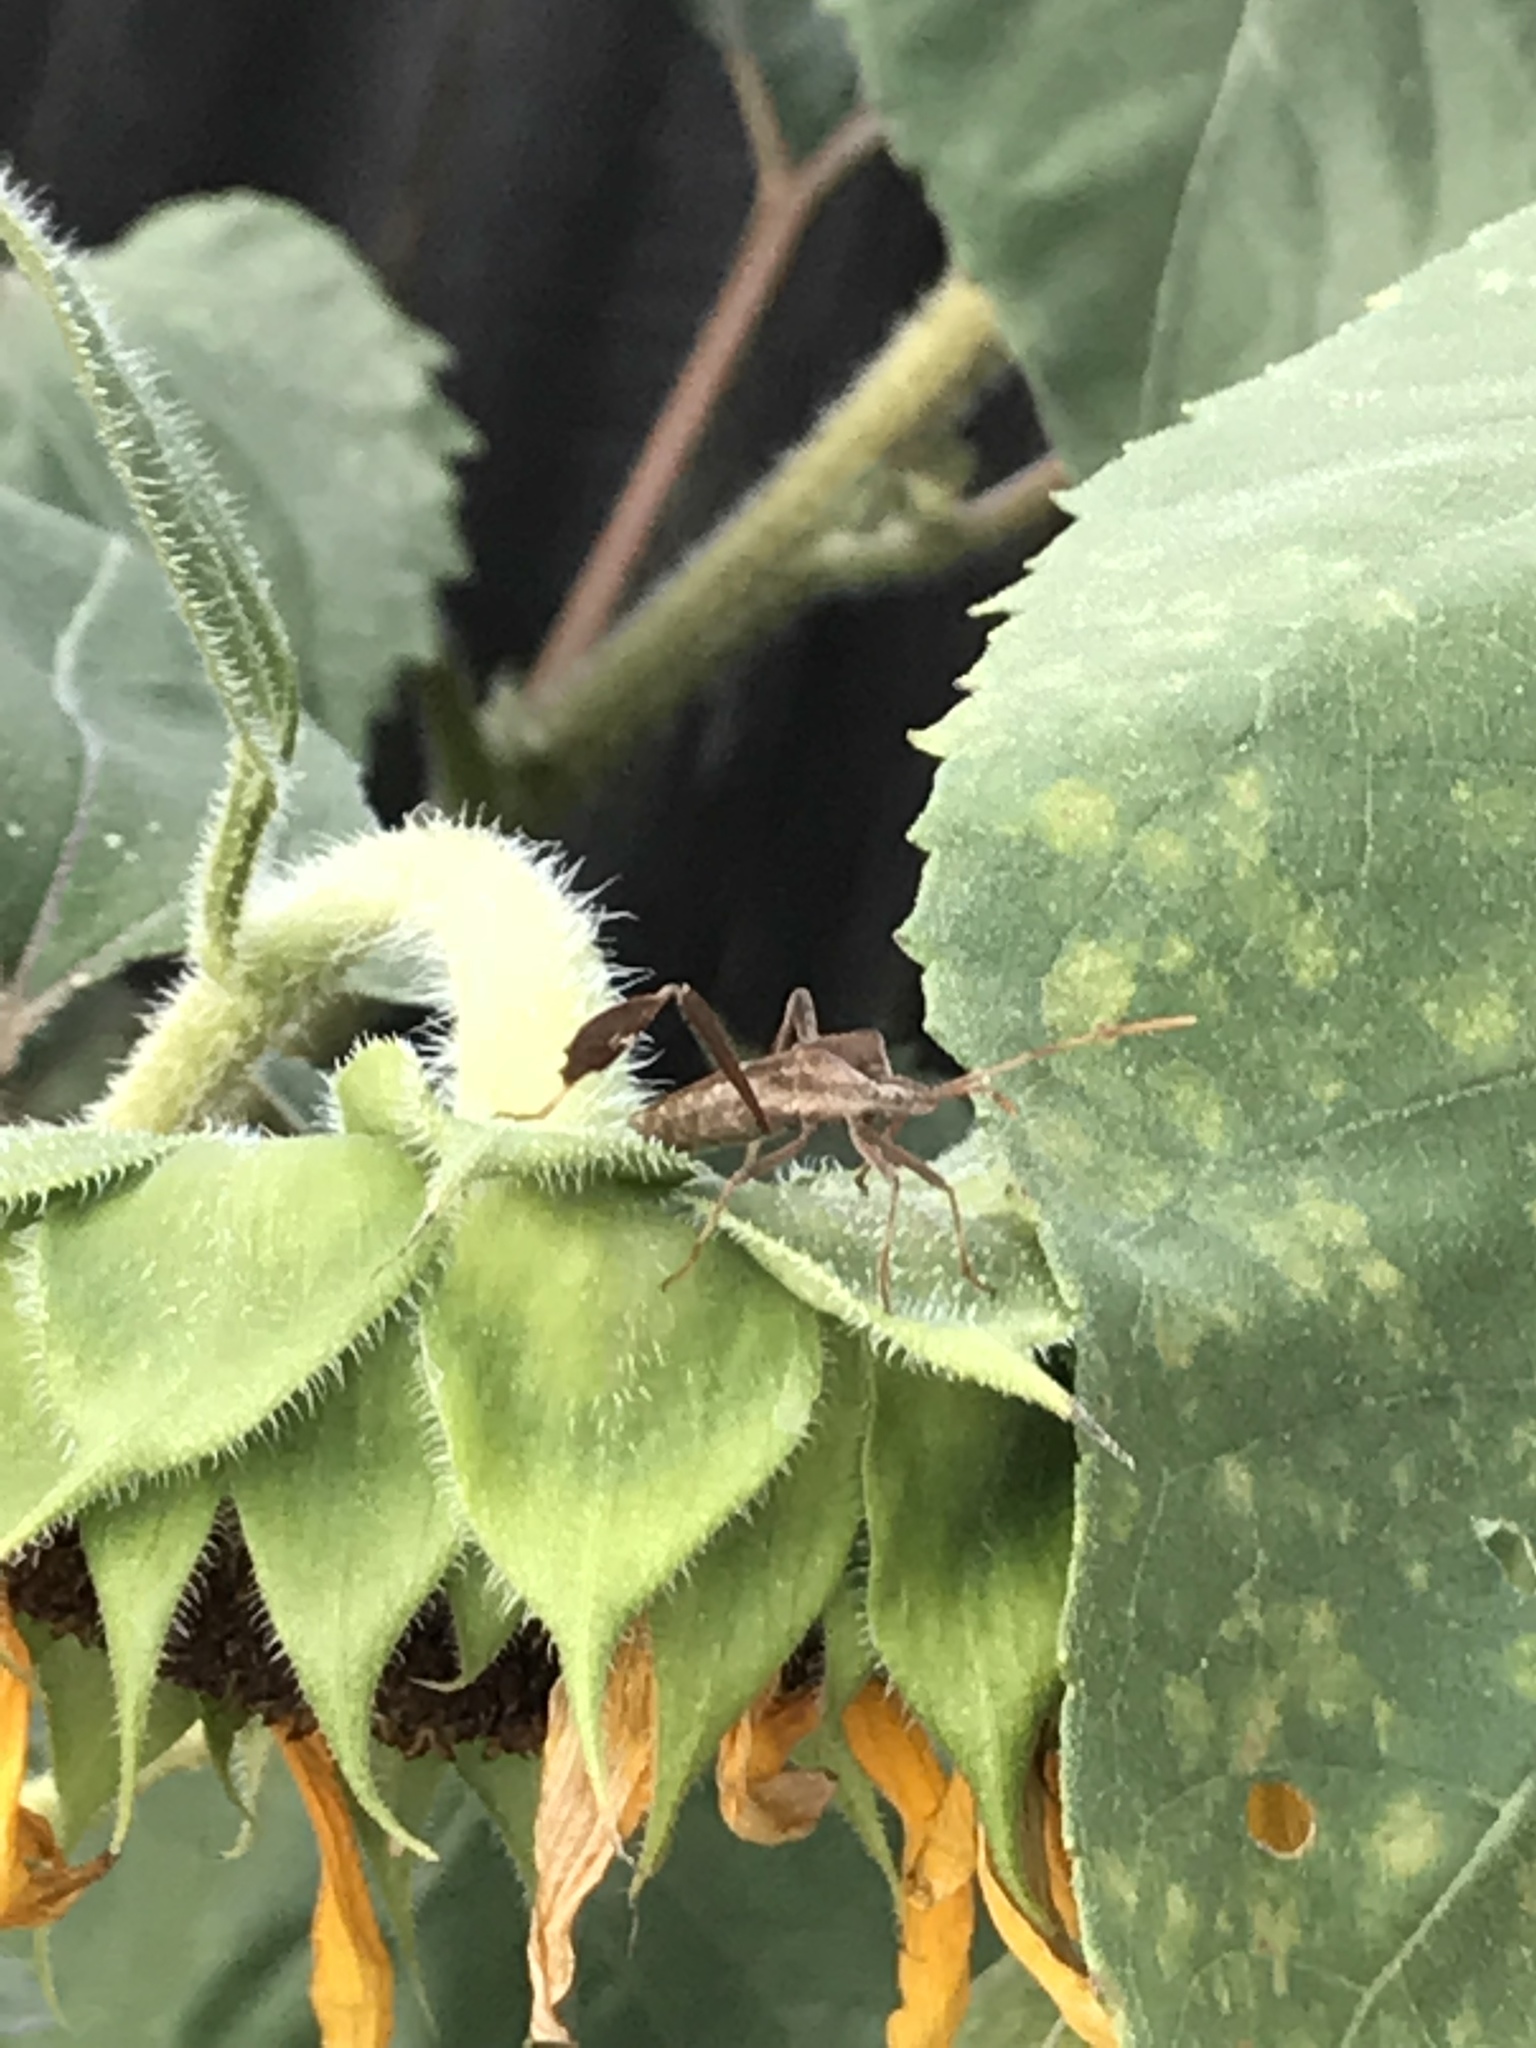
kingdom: Animalia
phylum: Arthropoda
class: Insecta
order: Hemiptera
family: Coreidae
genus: Leptoglossus
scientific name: Leptoglossus phyllopus
